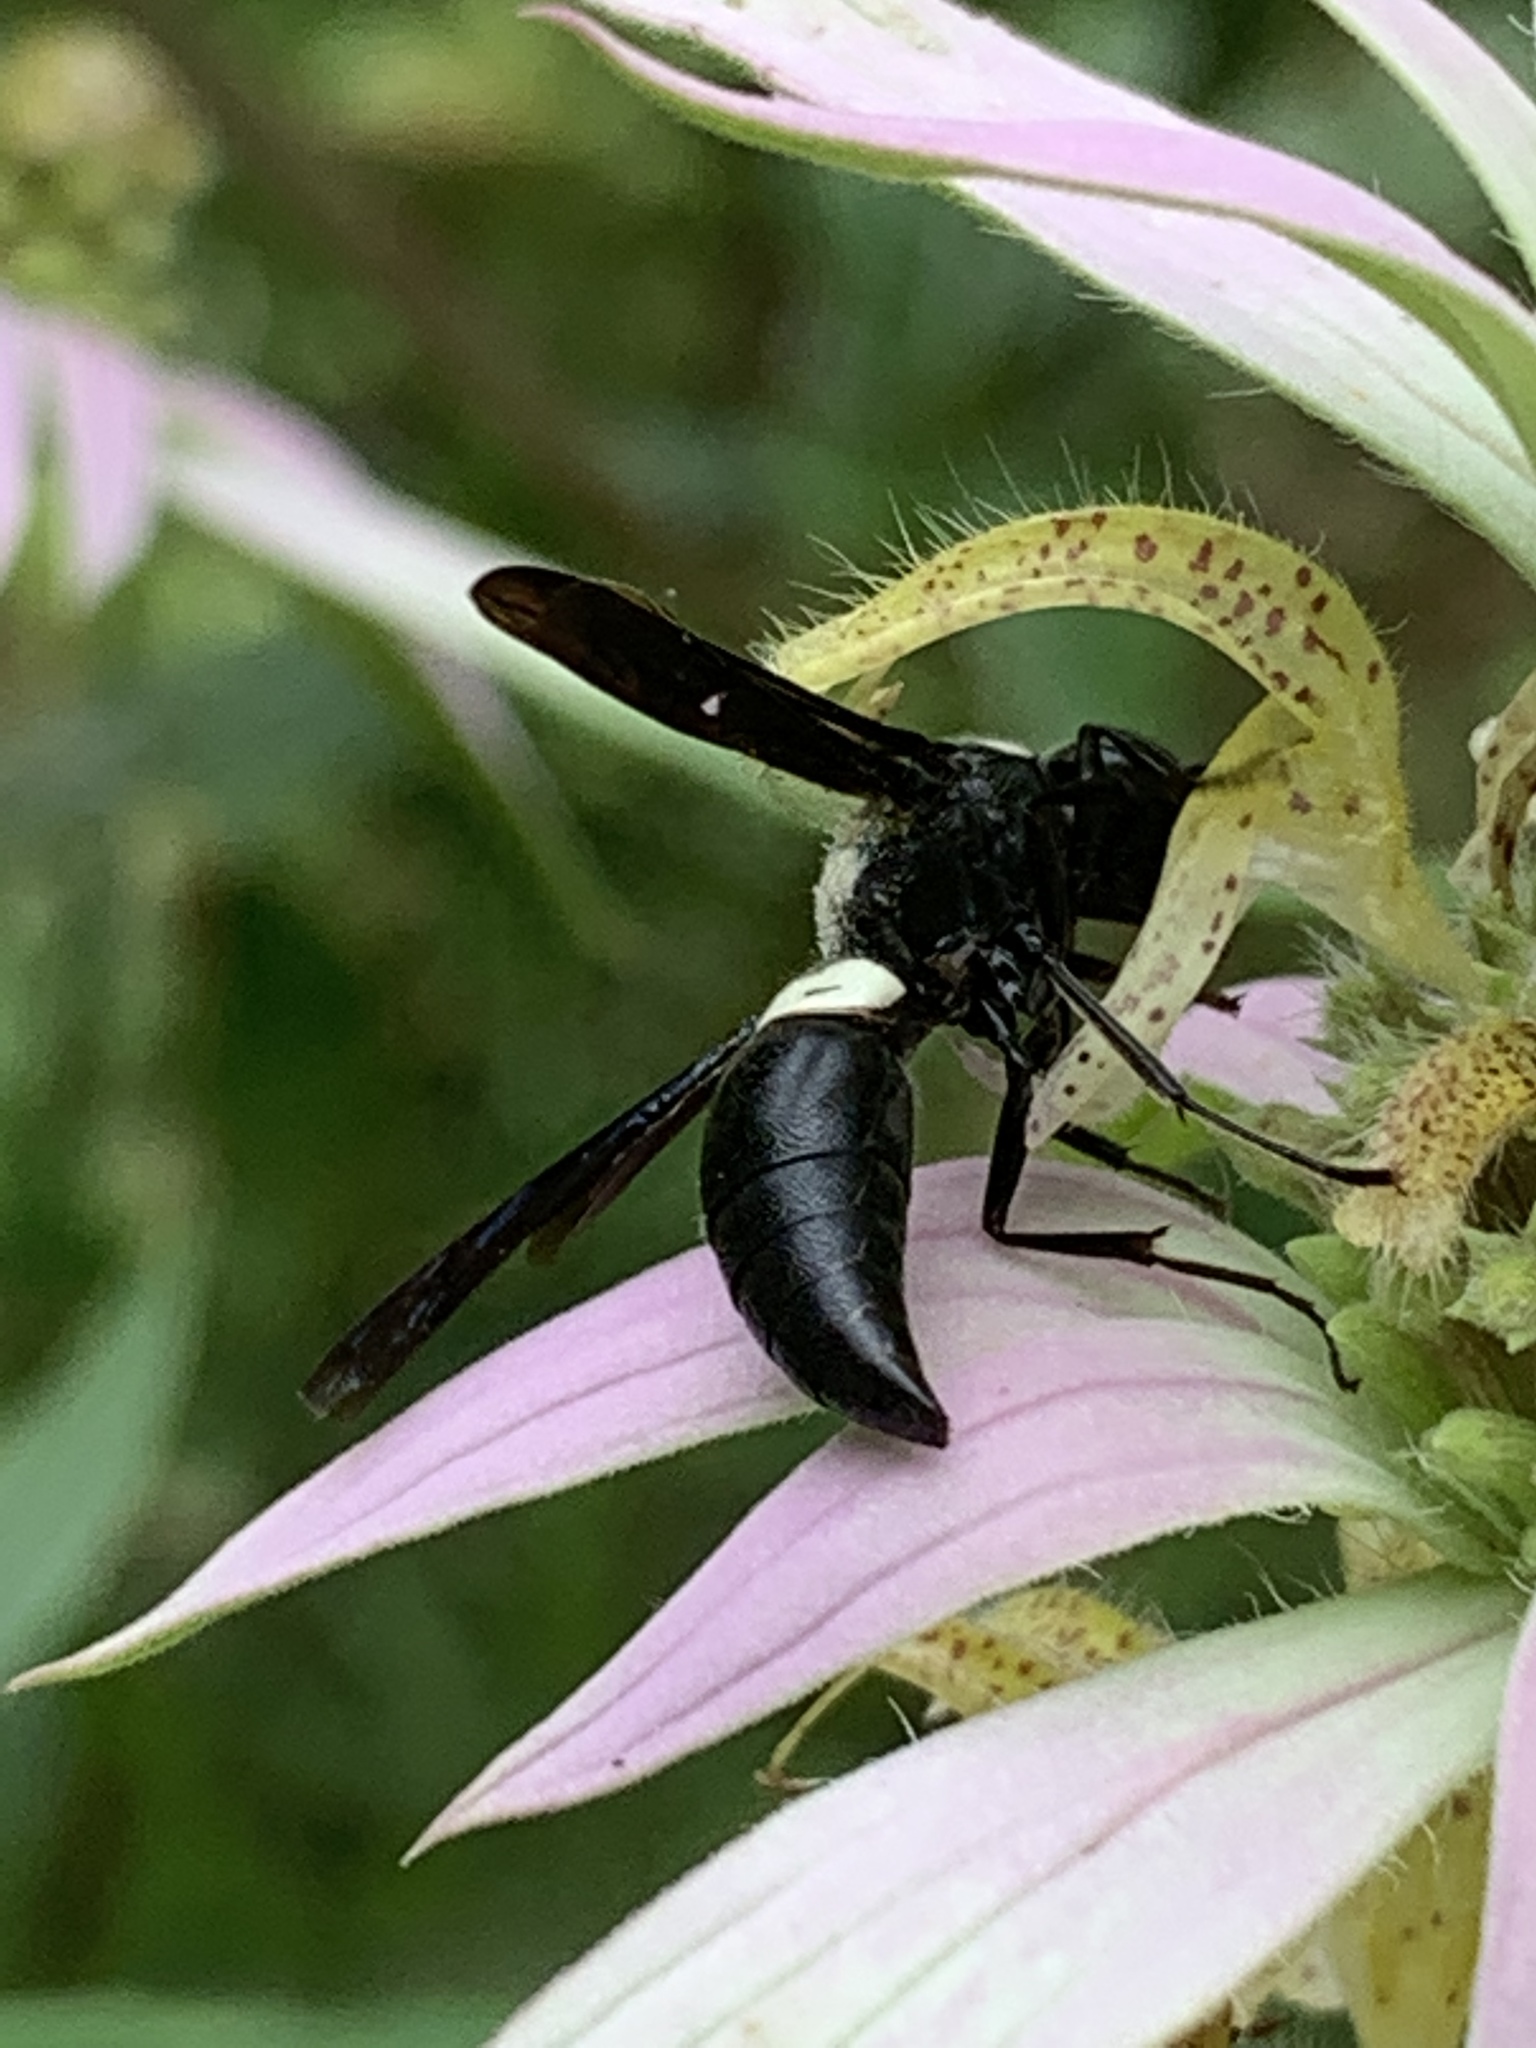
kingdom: Animalia
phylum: Arthropoda
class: Insecta
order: Hymenoptera
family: Eumenidae
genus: Monobia
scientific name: Monobia quadridens
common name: Four-toothed mason wasp
